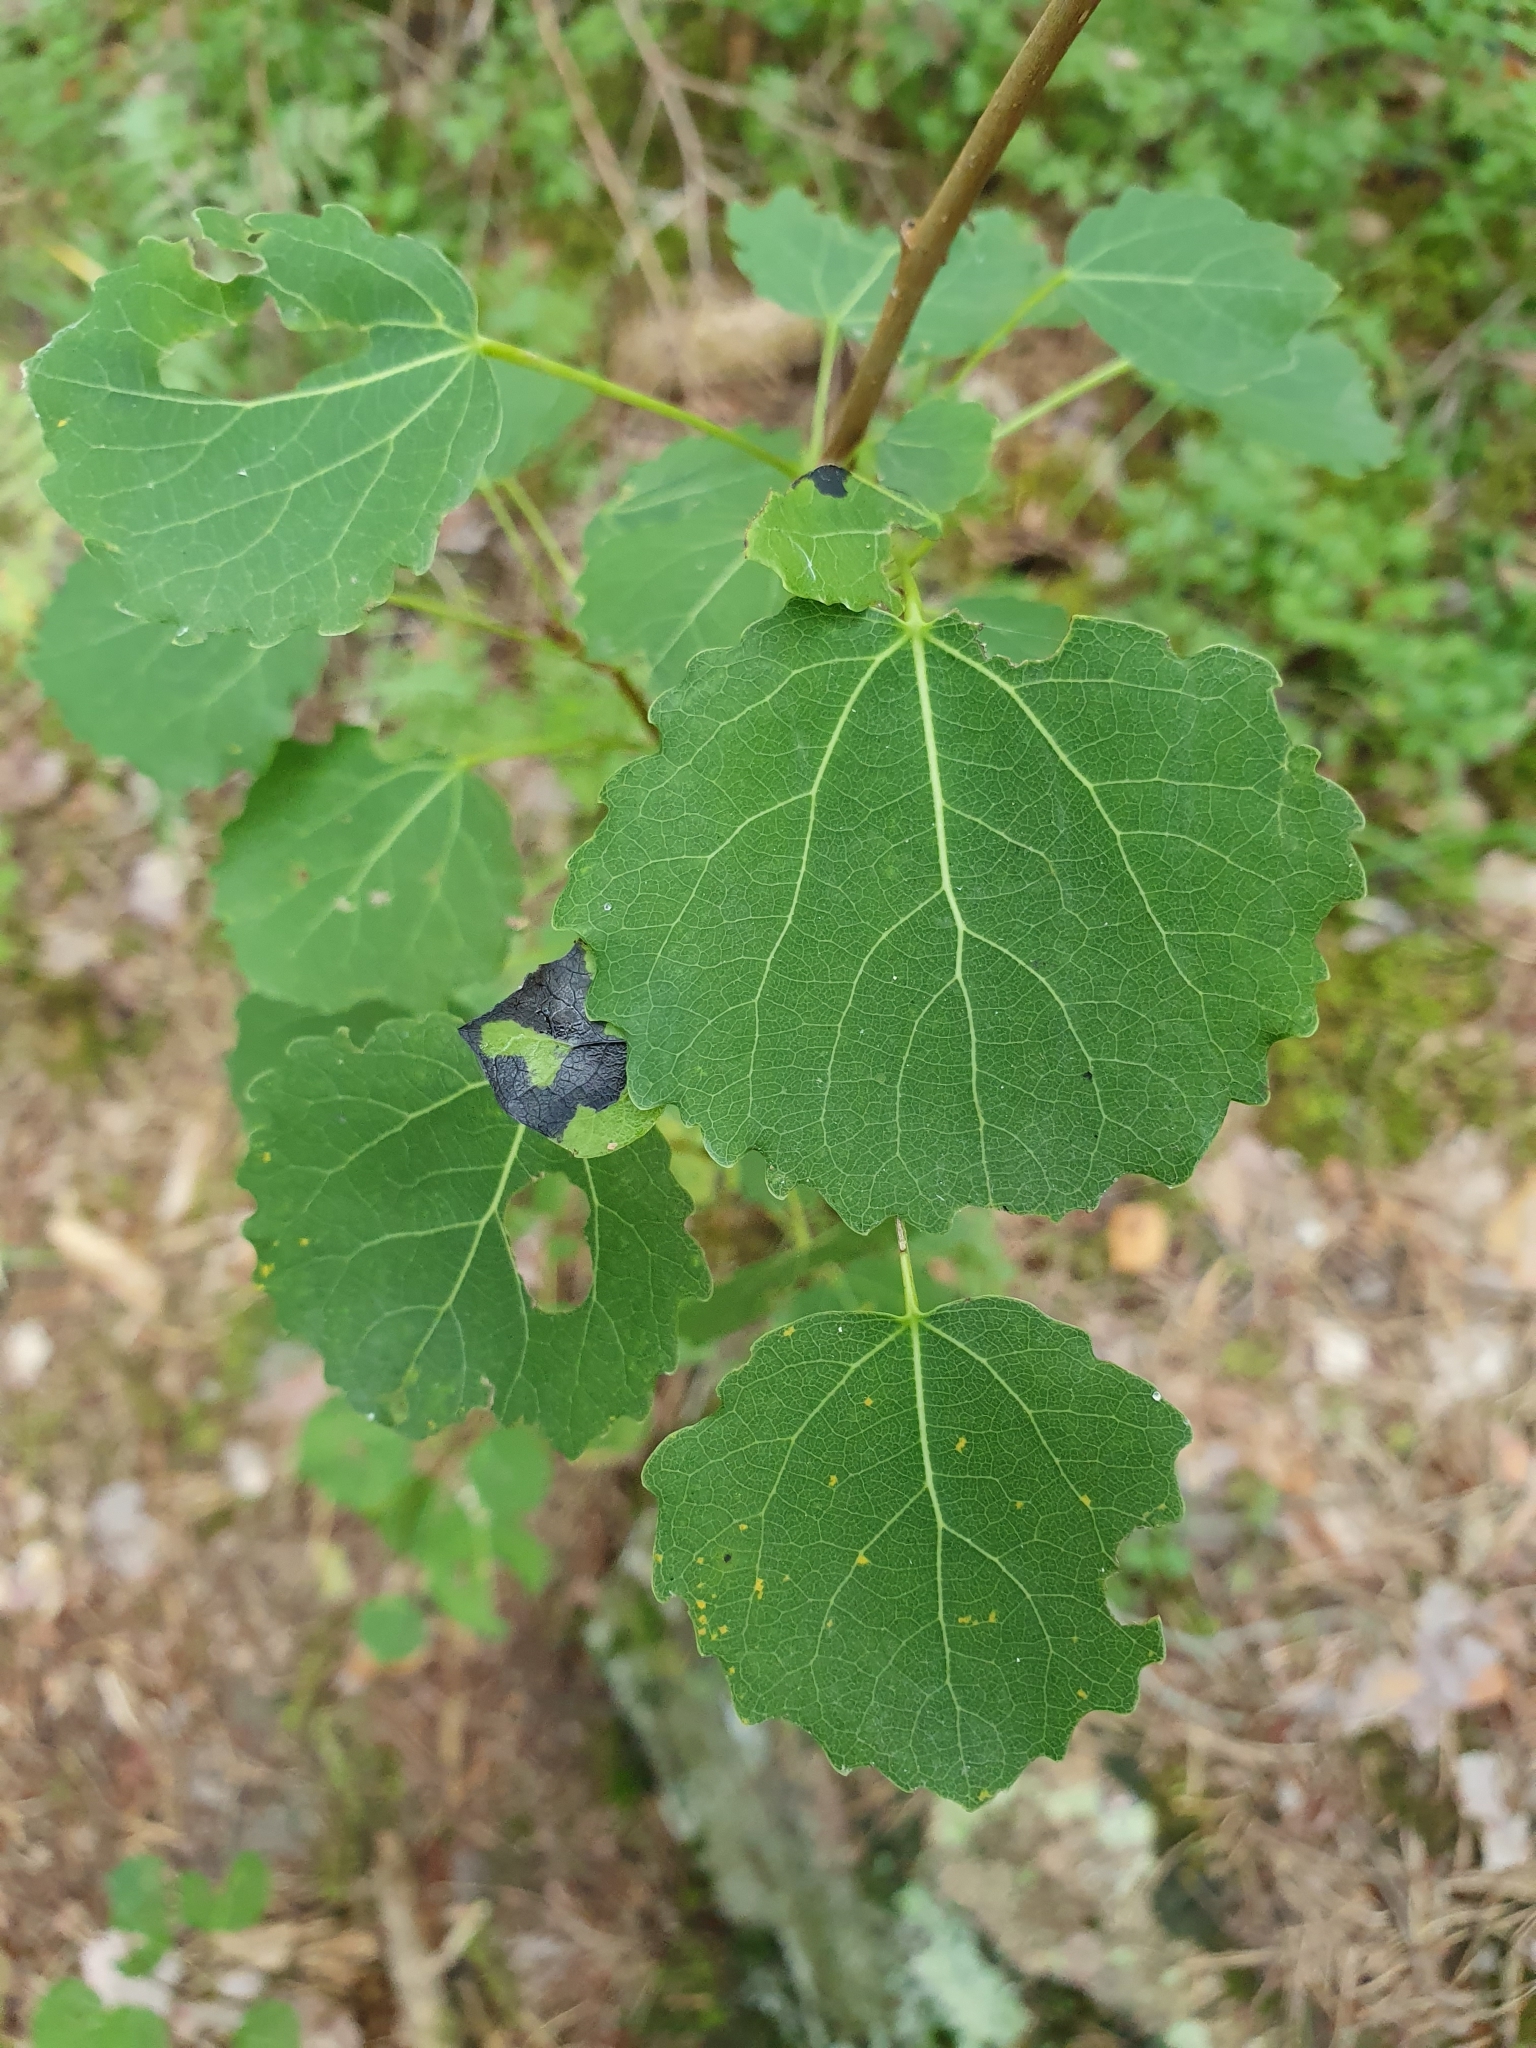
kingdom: Plantae
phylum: Tracheophyta
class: Magnoliopsida
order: Malpighiales
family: Salicaceae
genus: Populus
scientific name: Populus tremula
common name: European aspen
